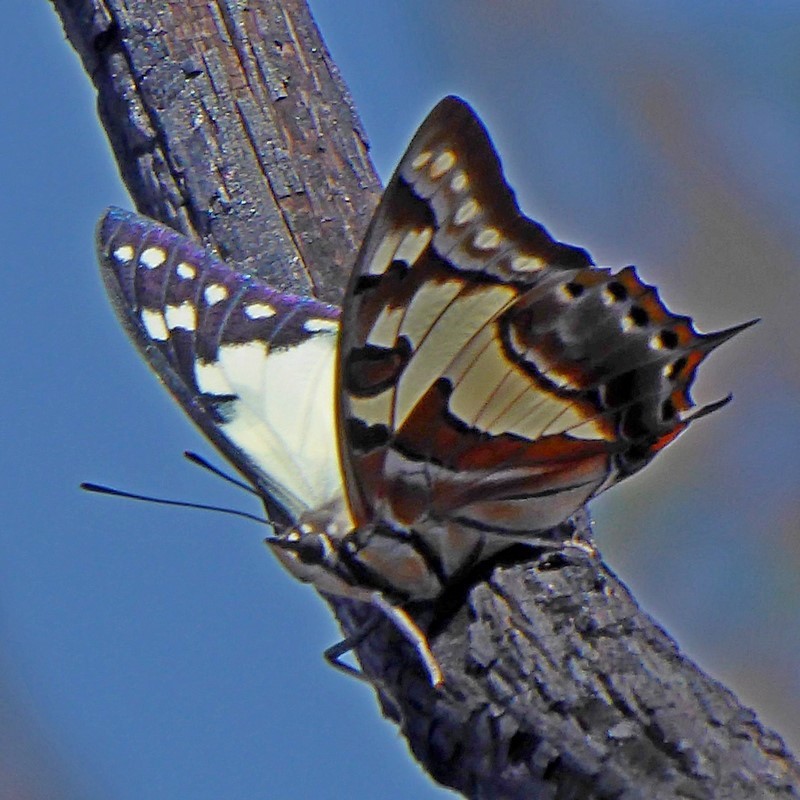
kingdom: Animalia
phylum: Arthropoda
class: Insecta
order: Lepidoptera
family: Nymphalidae
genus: Charaxes
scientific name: Charaxes
